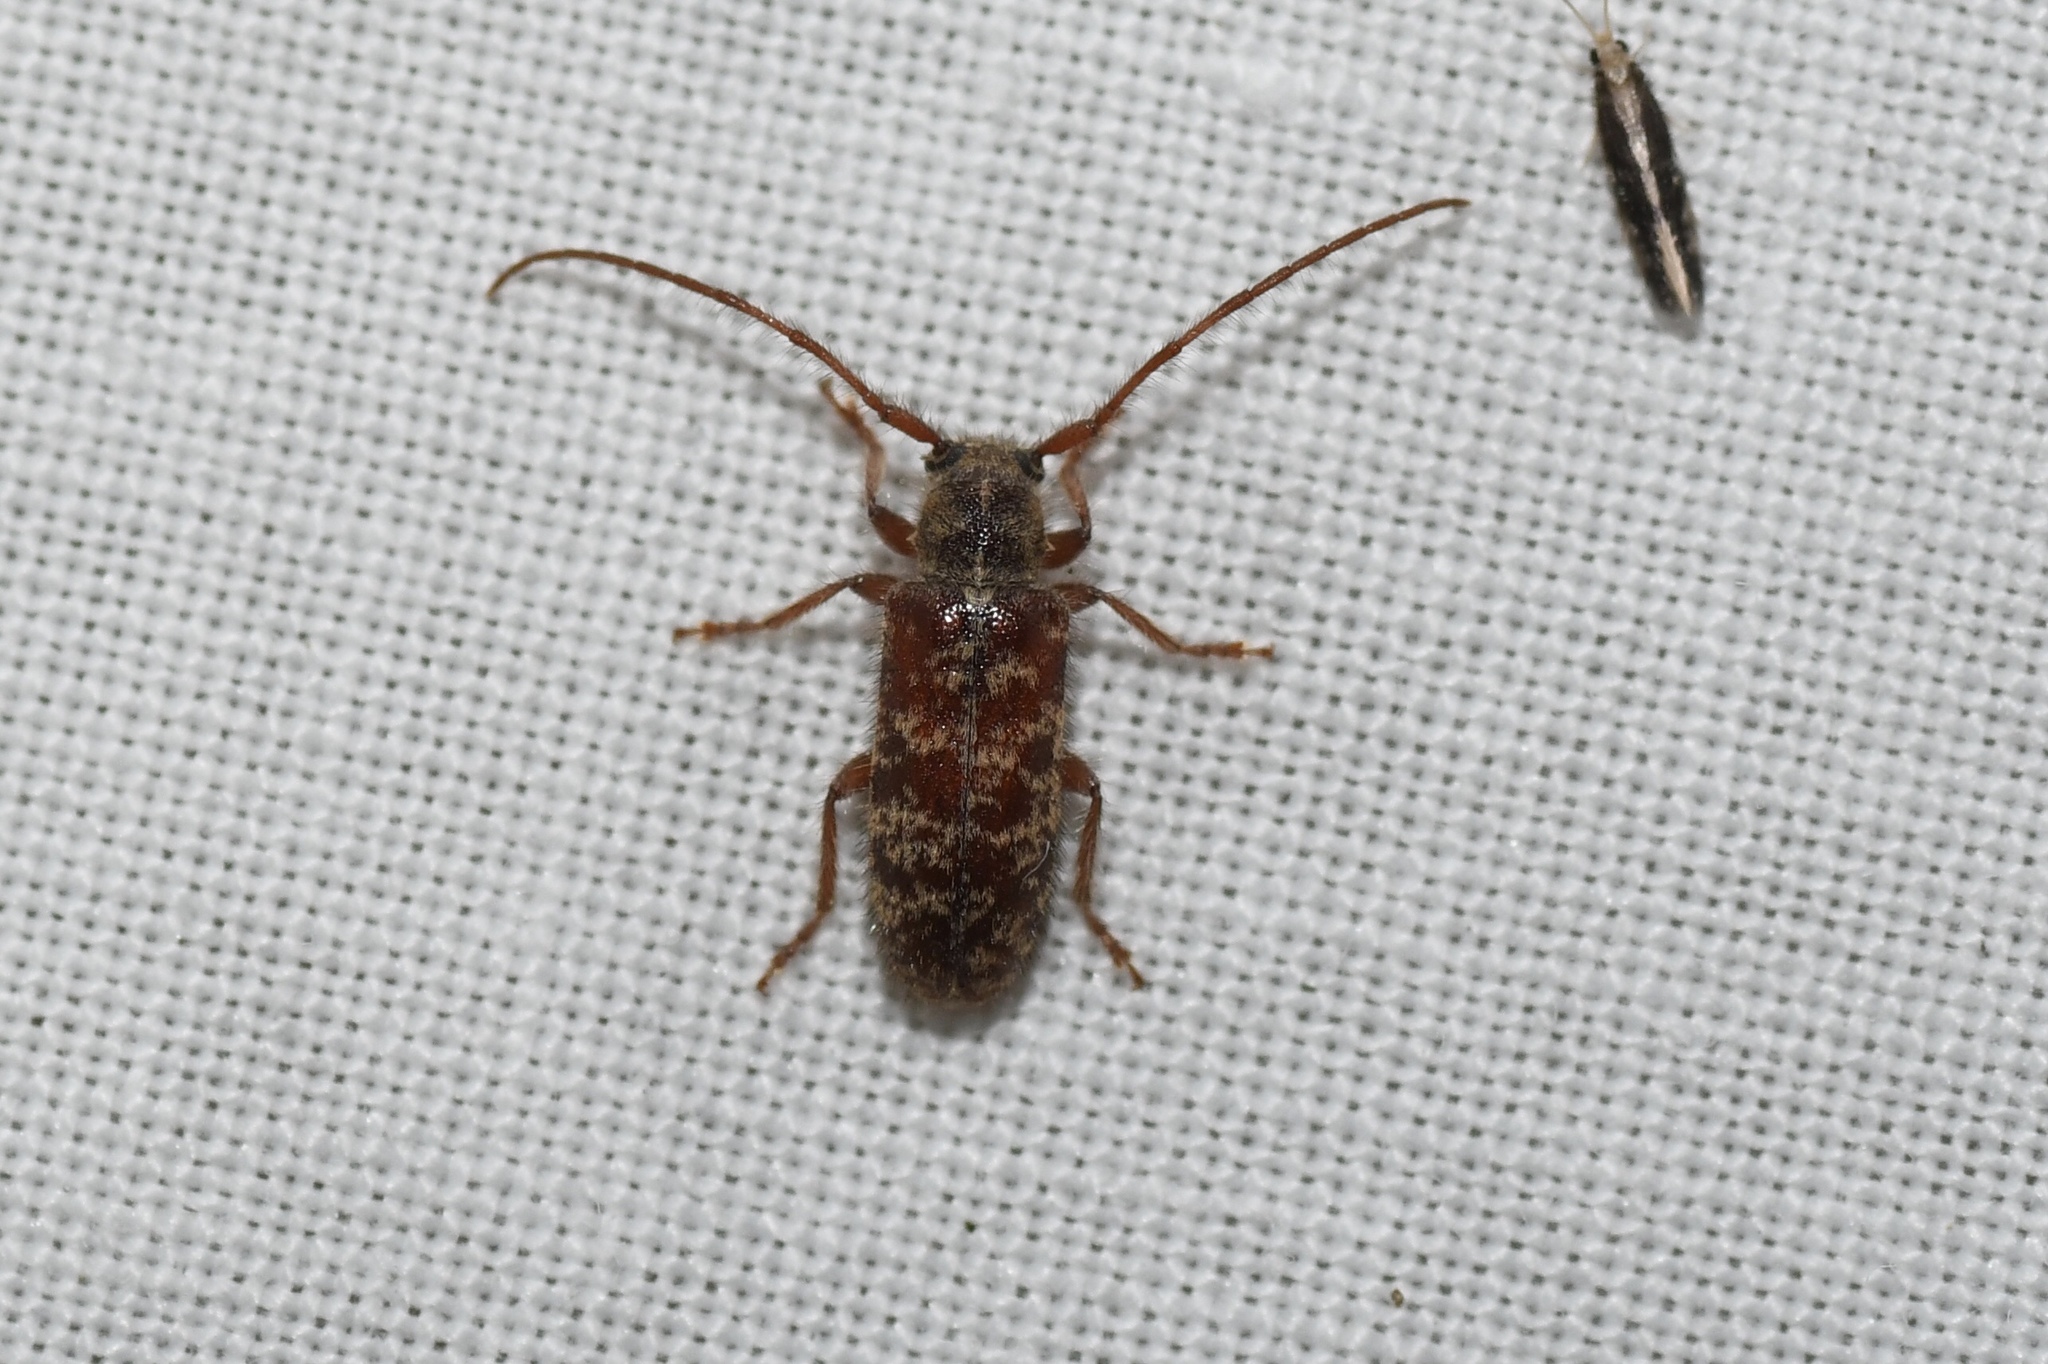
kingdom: Animalia
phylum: Arthropoda
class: Insecta
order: Coleoptera
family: Cerambycidae
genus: Eupogonius
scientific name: Eupogonius tomentosus
